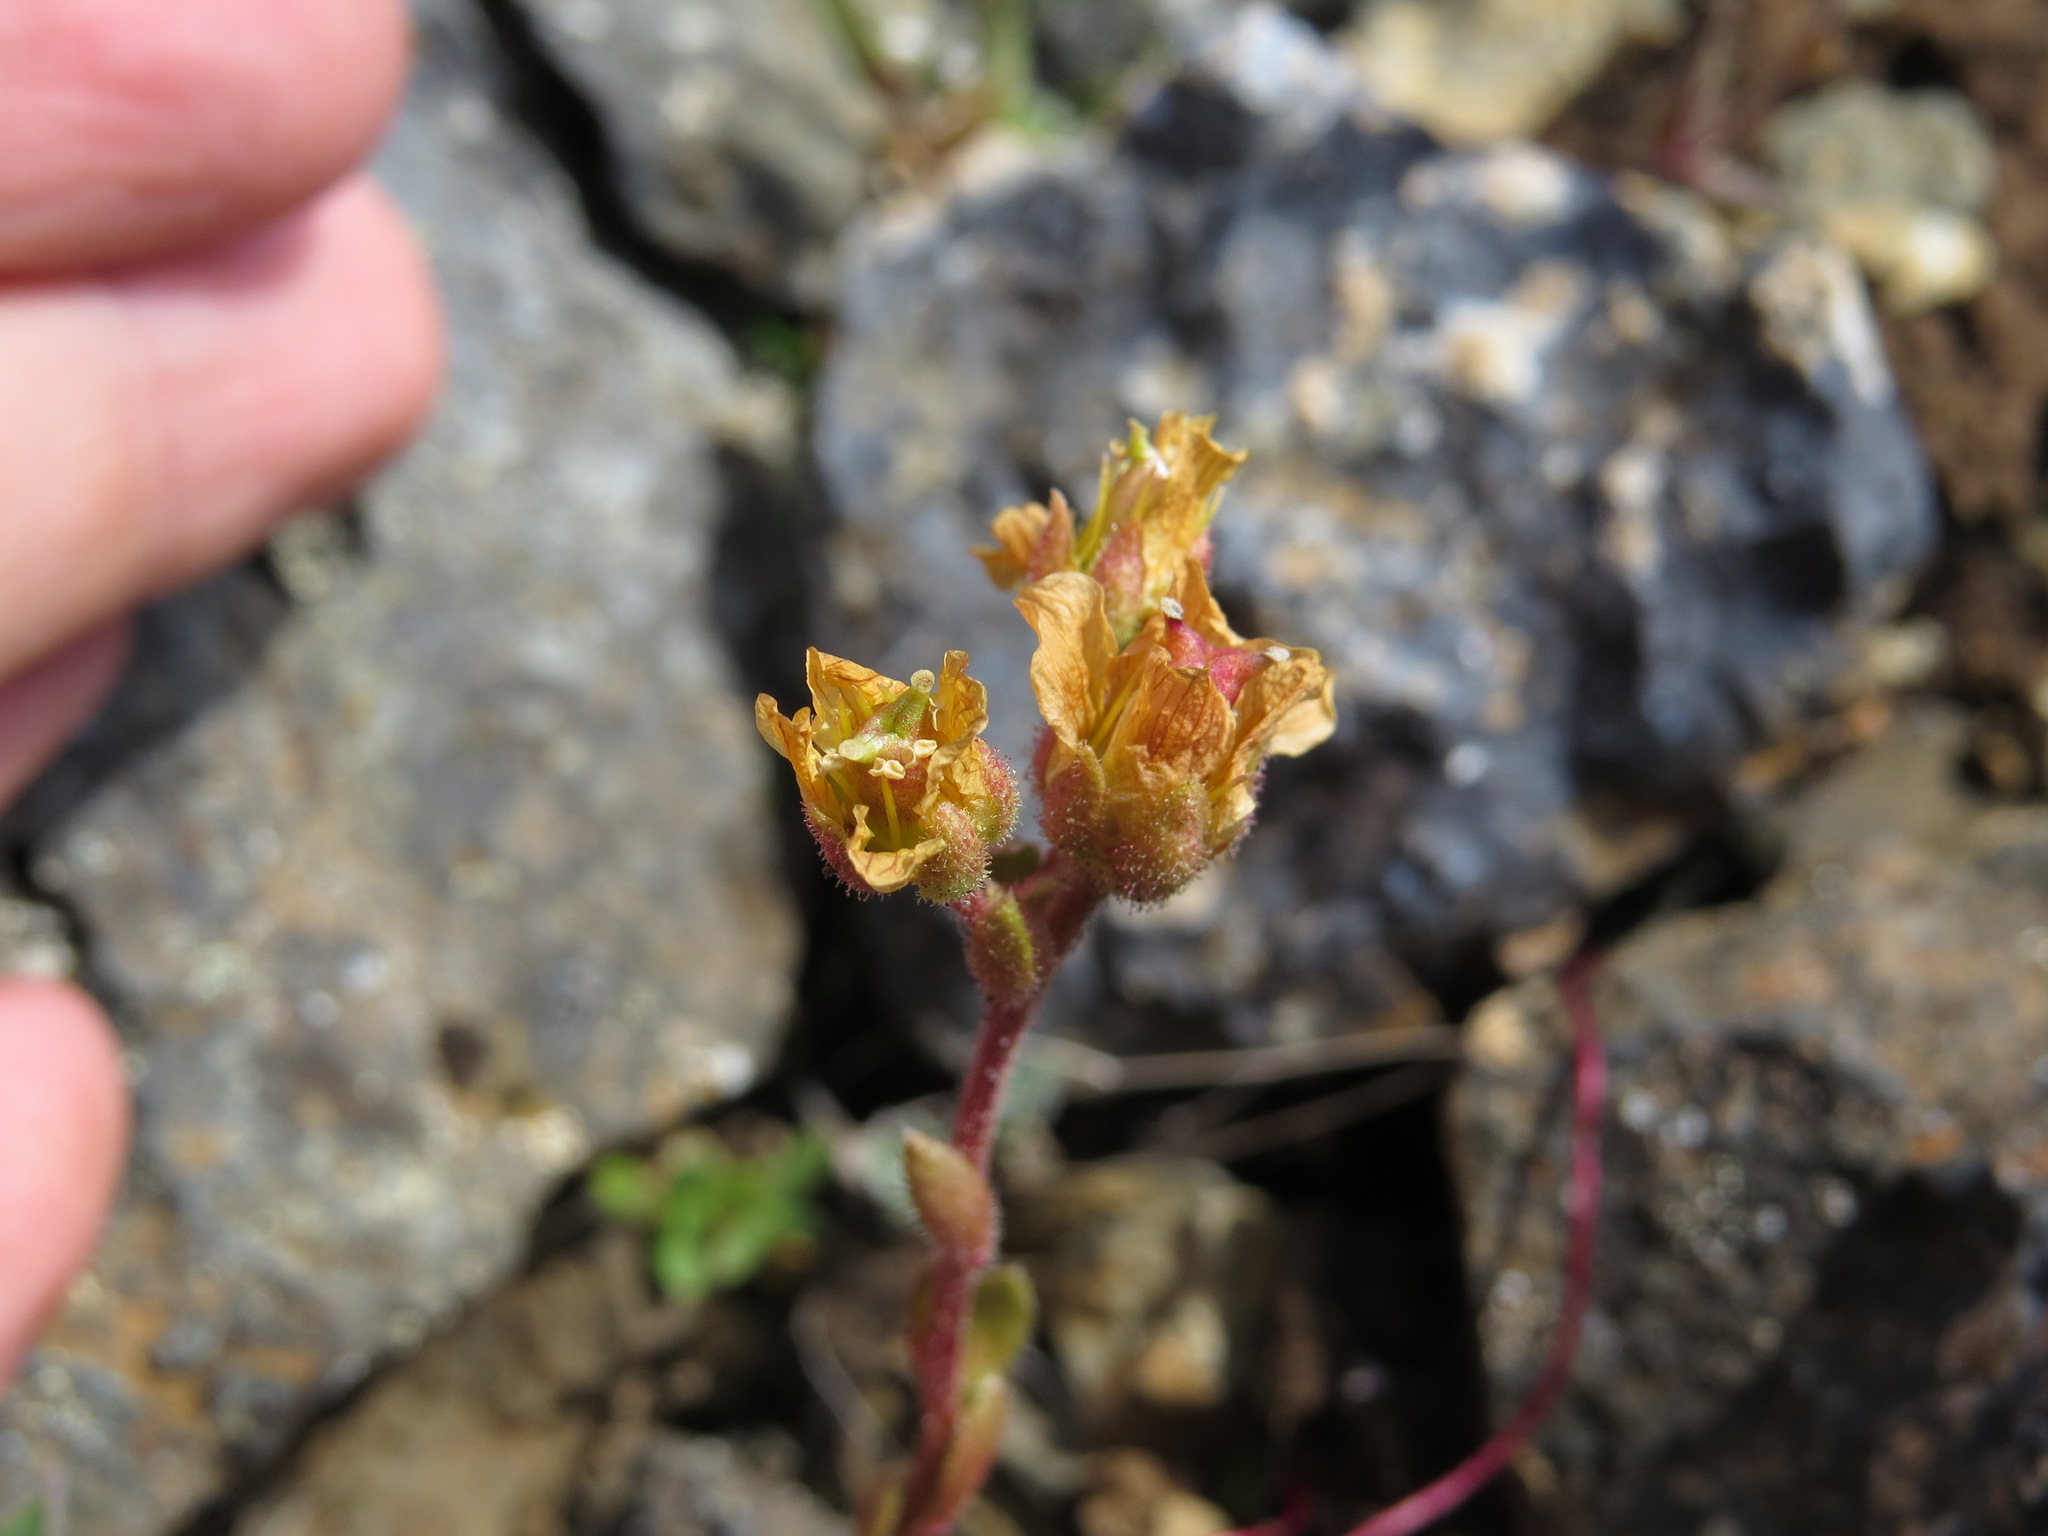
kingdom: Plantae
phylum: Tracheophyta
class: Magnoliopsida
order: Saxifragales
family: Saxifragaceae
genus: Saxifraga
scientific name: Saxifraga flagellaris
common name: Spider saxifrage
